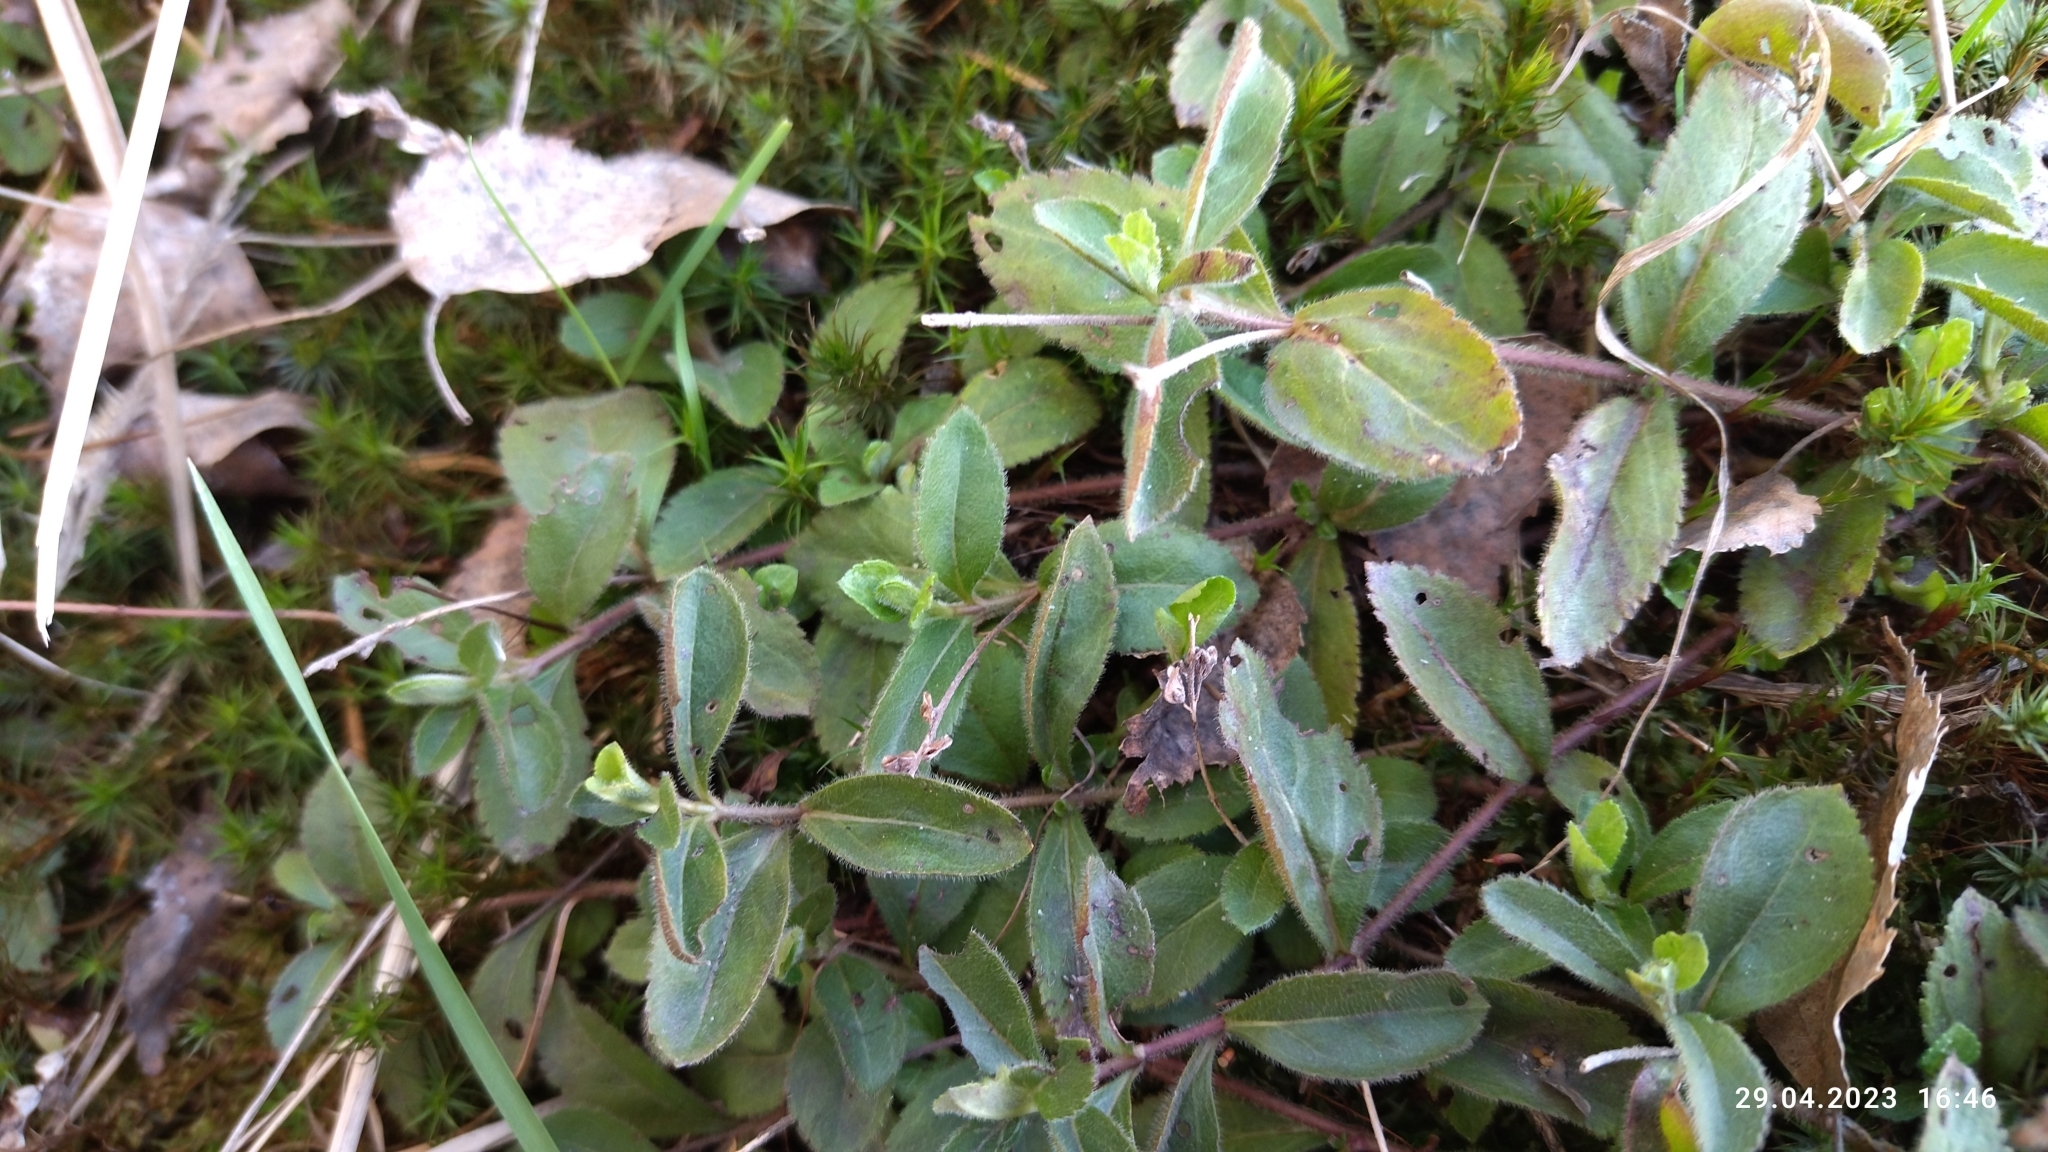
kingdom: Plantae
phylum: Tracheophyta
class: Magnoliopsida
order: Lamiales
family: Plantaginaceae
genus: Veronica
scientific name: Veronica officinalis
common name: Common speedwell
